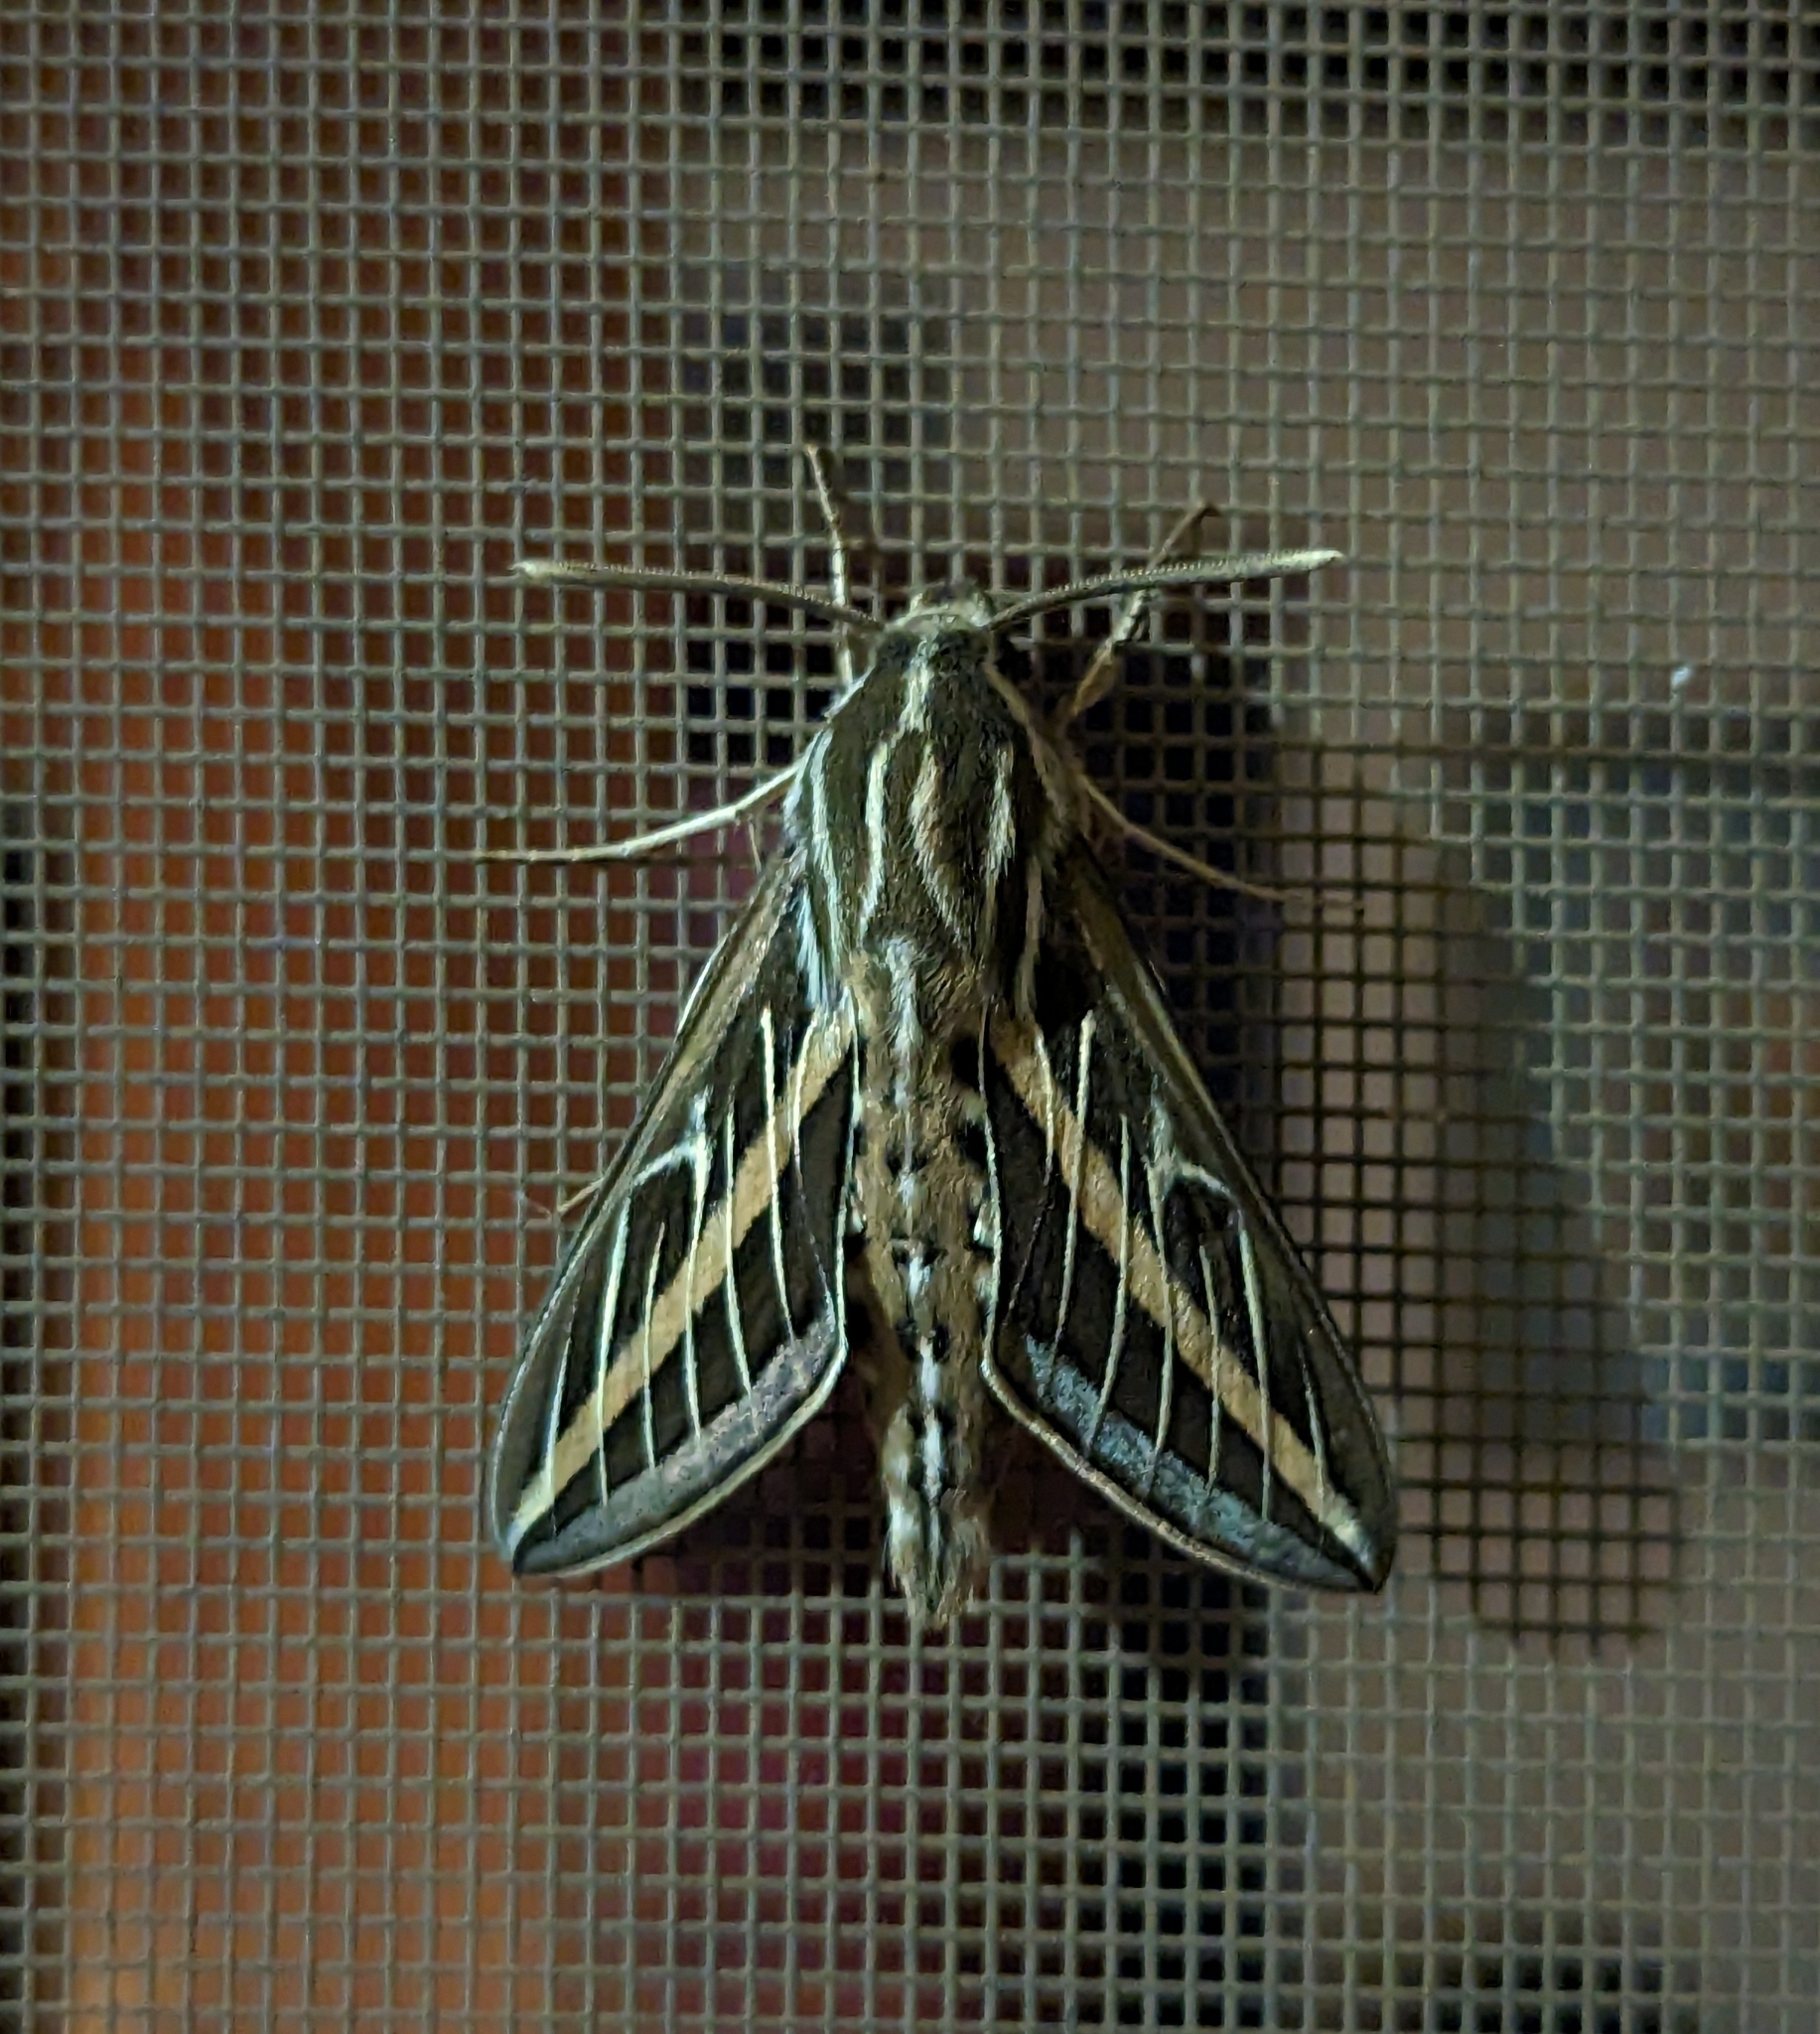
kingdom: Animalia
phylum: Arthropoda
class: Insecta
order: Lepidoptera
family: Sphingidae
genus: Hyles
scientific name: Hyles lineata
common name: White-lined sphinx
